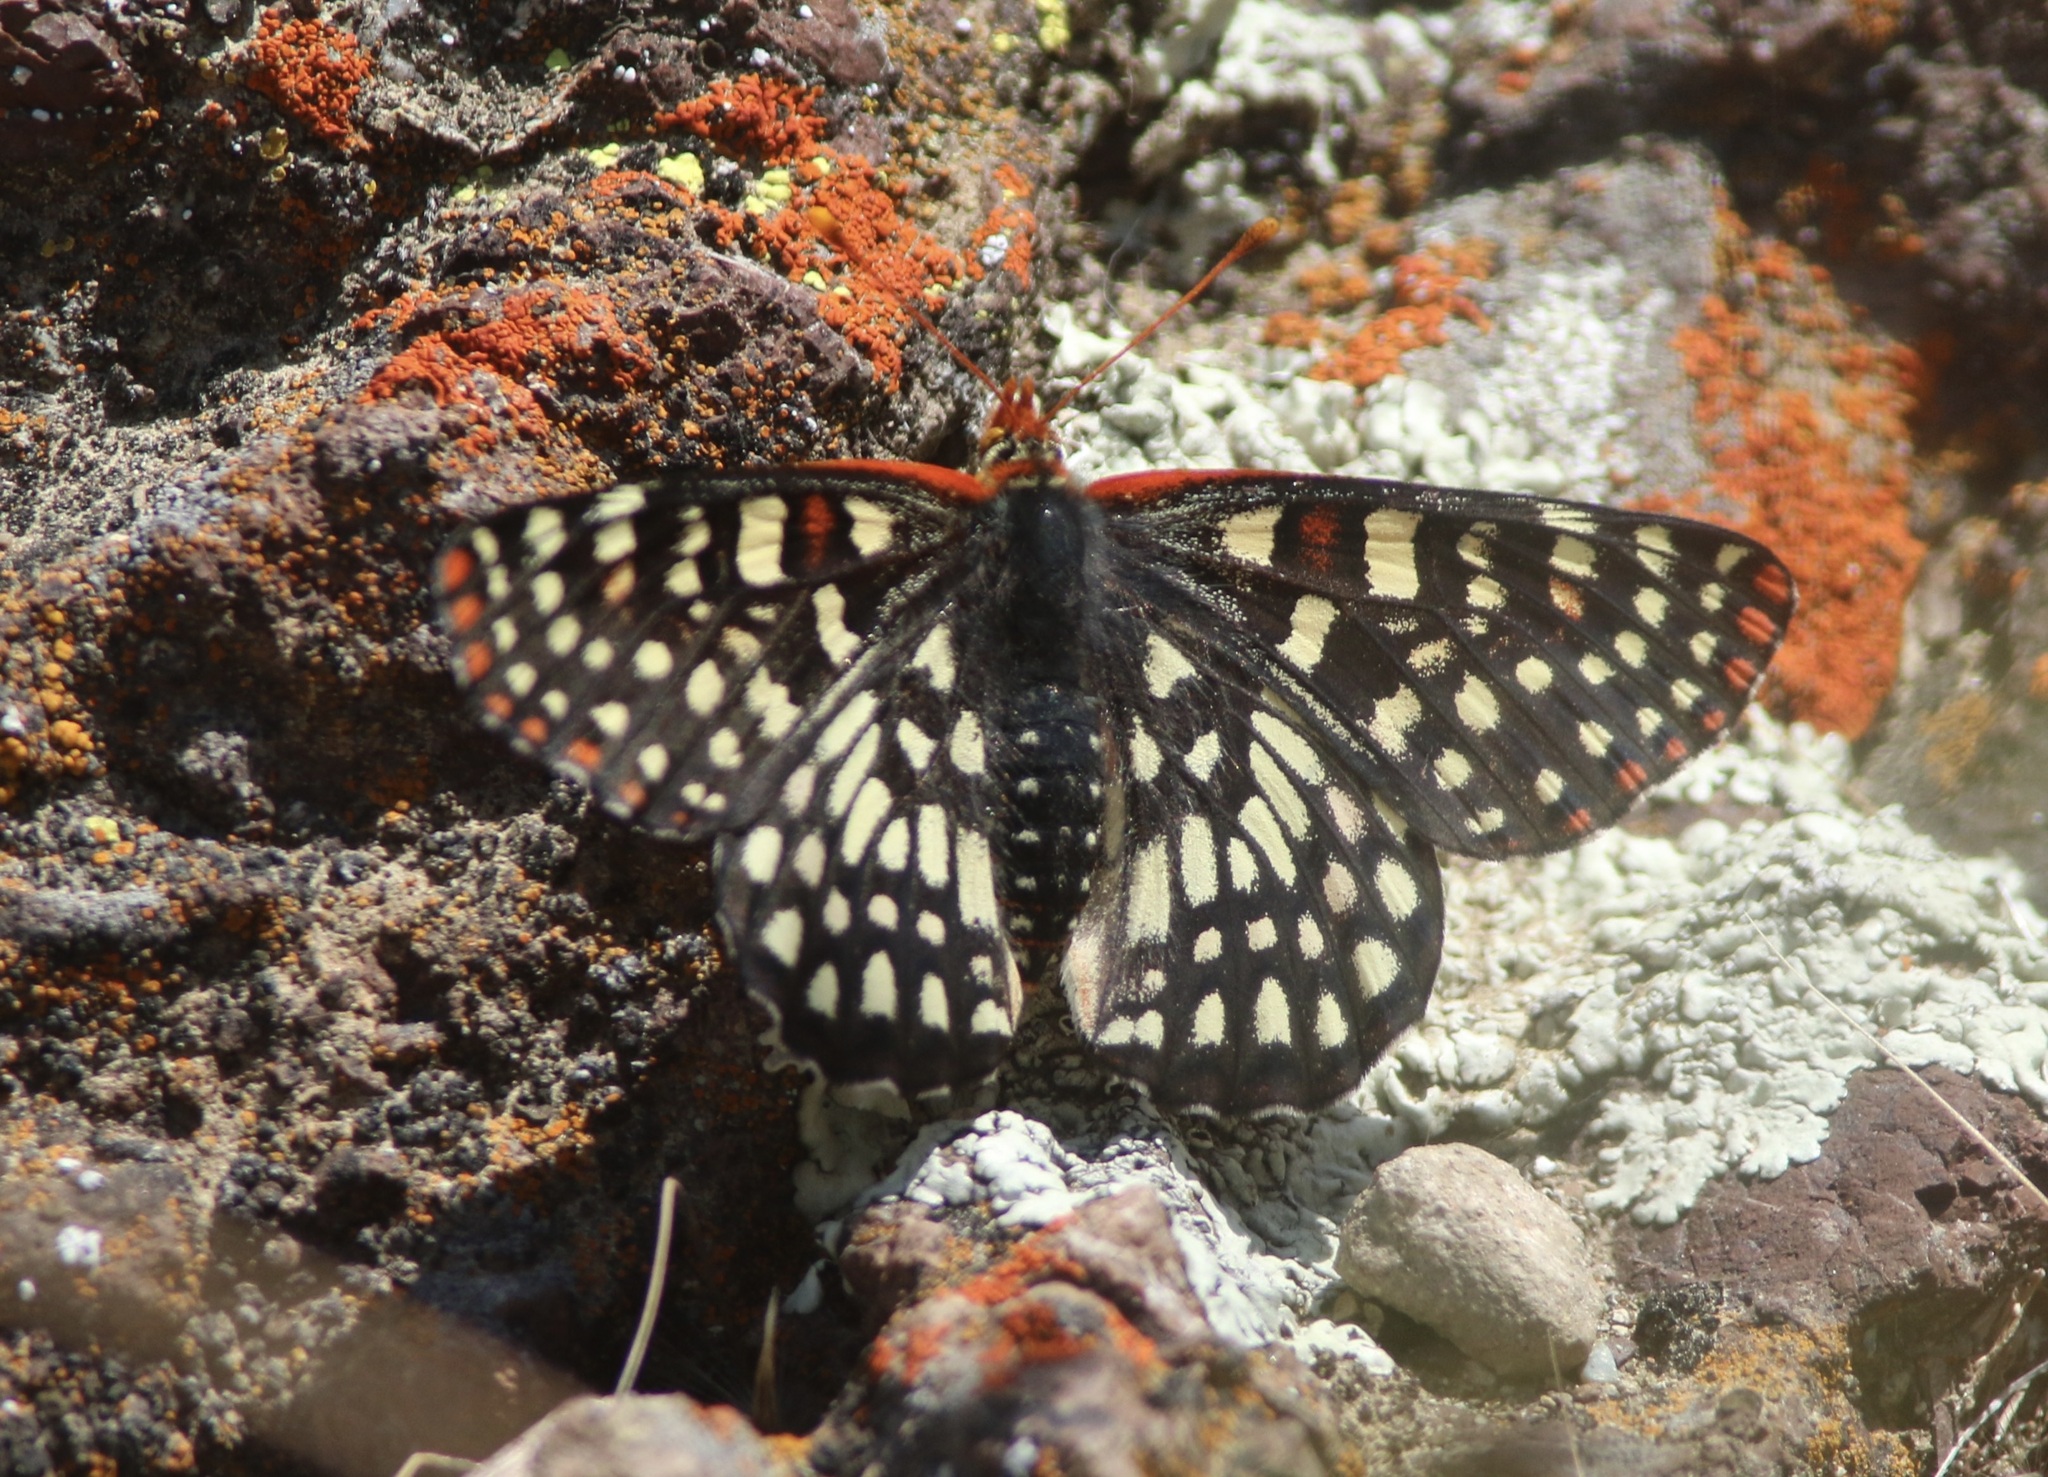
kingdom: Animalia
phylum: Arthropoda
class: Insecta
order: Lepidoptera
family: Nymphalidae
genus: Occidryas
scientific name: Occidryas chalcedona
